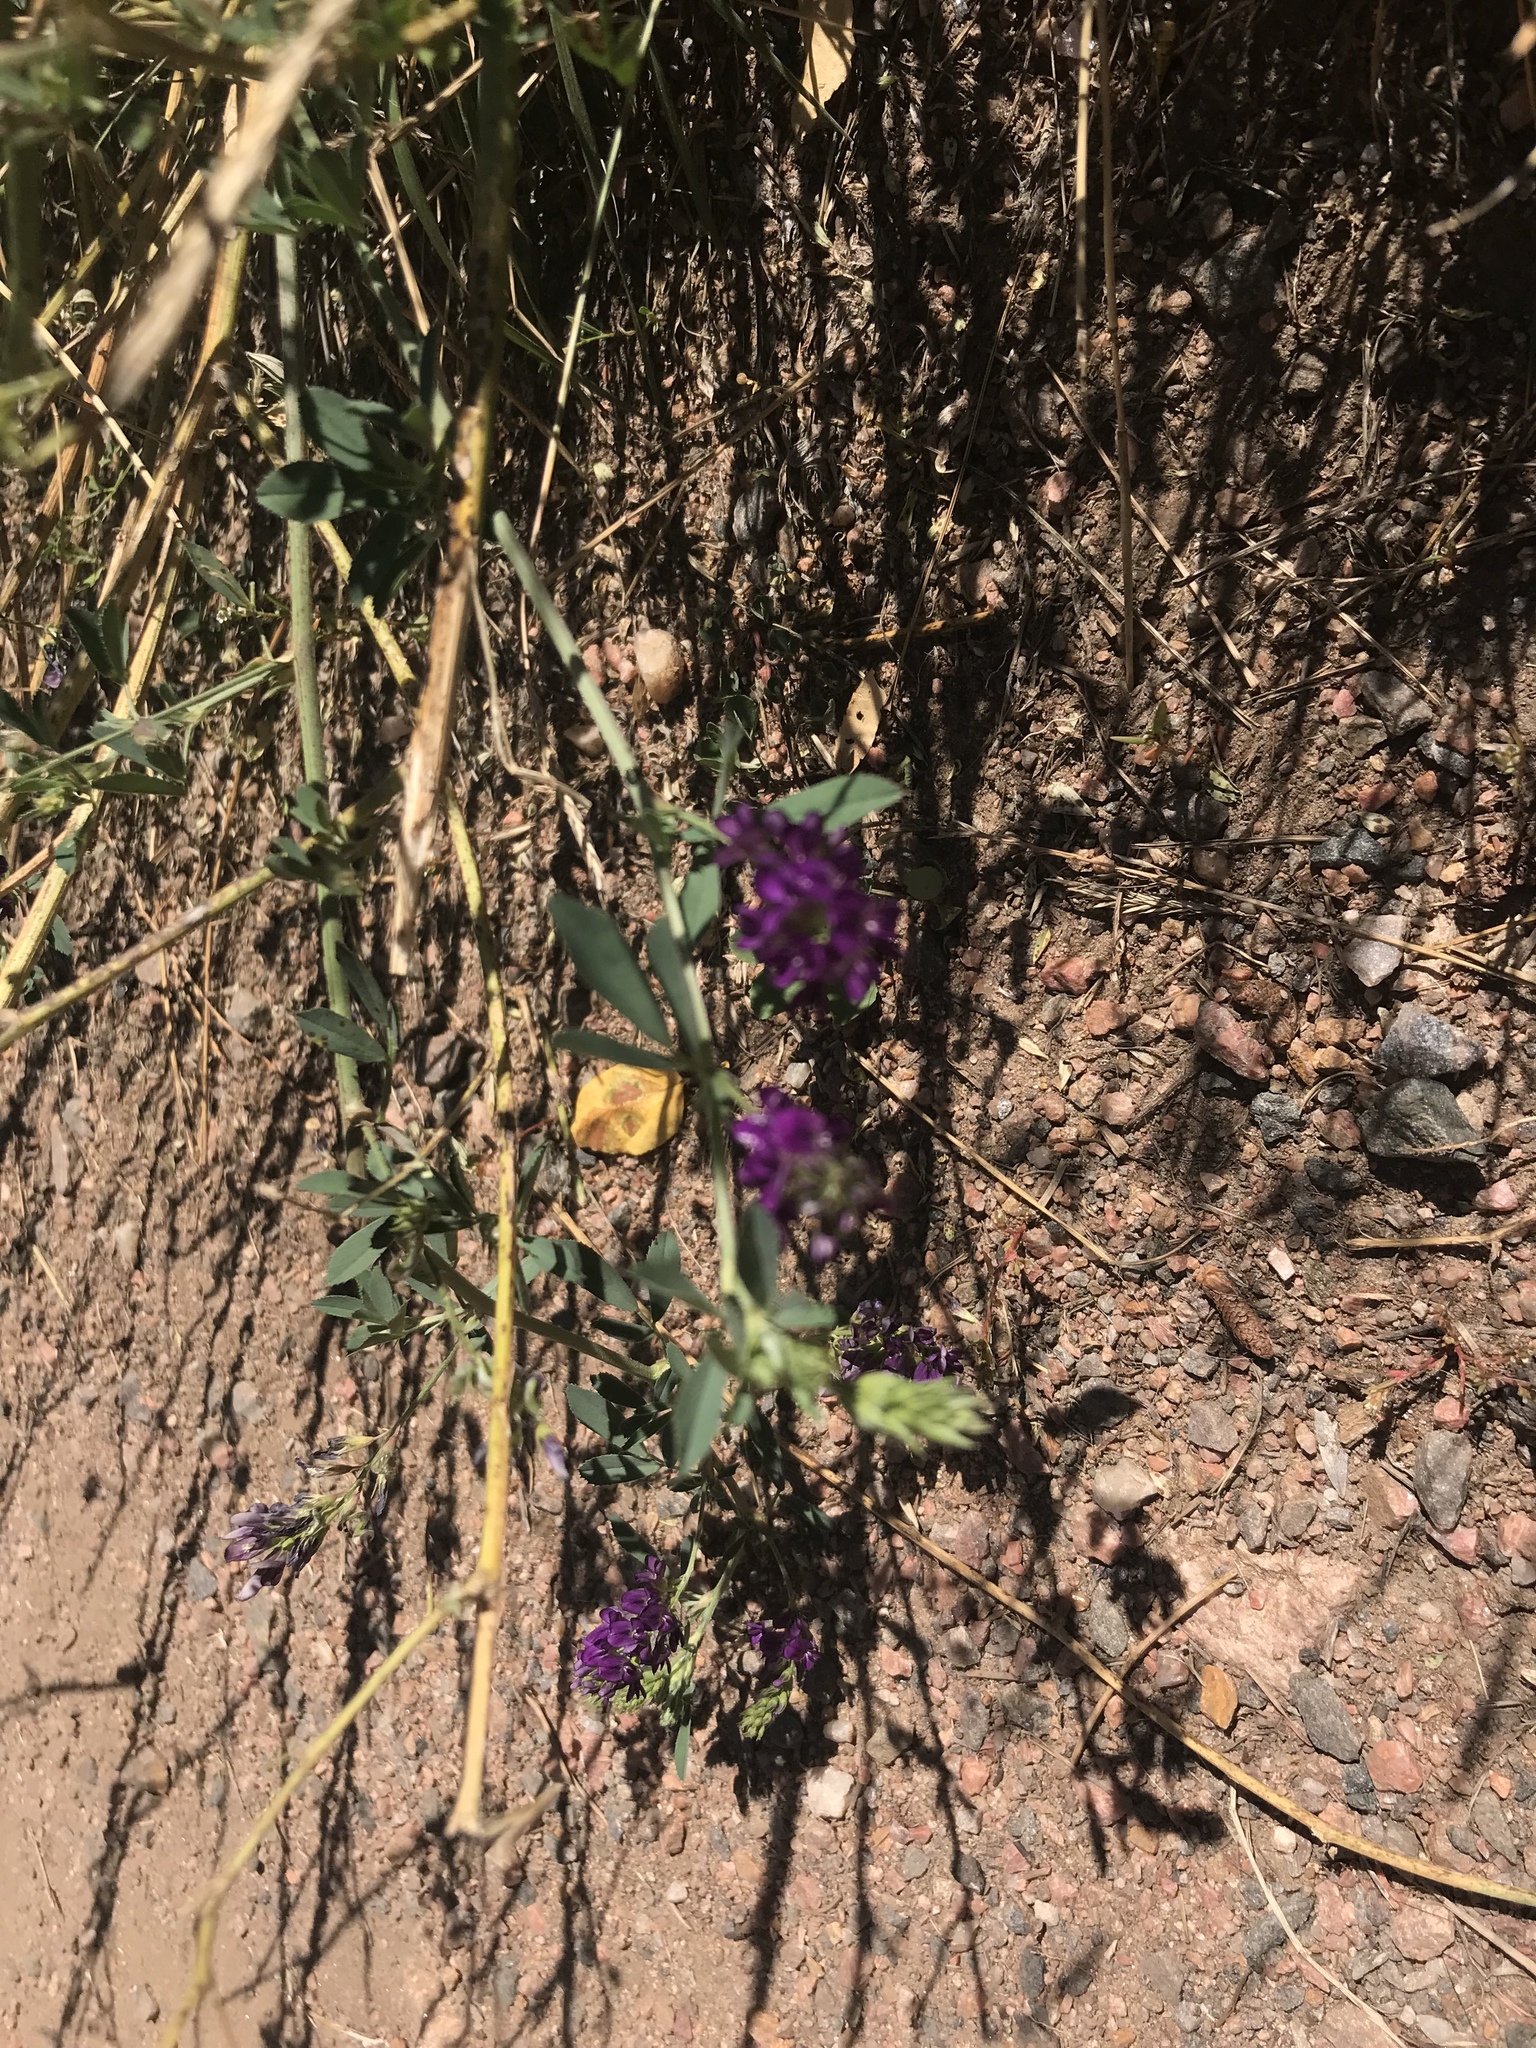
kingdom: Plantae
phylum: Tracheophyta
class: Magnoliopsida
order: Fabales
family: Fabaceae
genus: Medicago
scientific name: Medicago sativa
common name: Alfalfa
